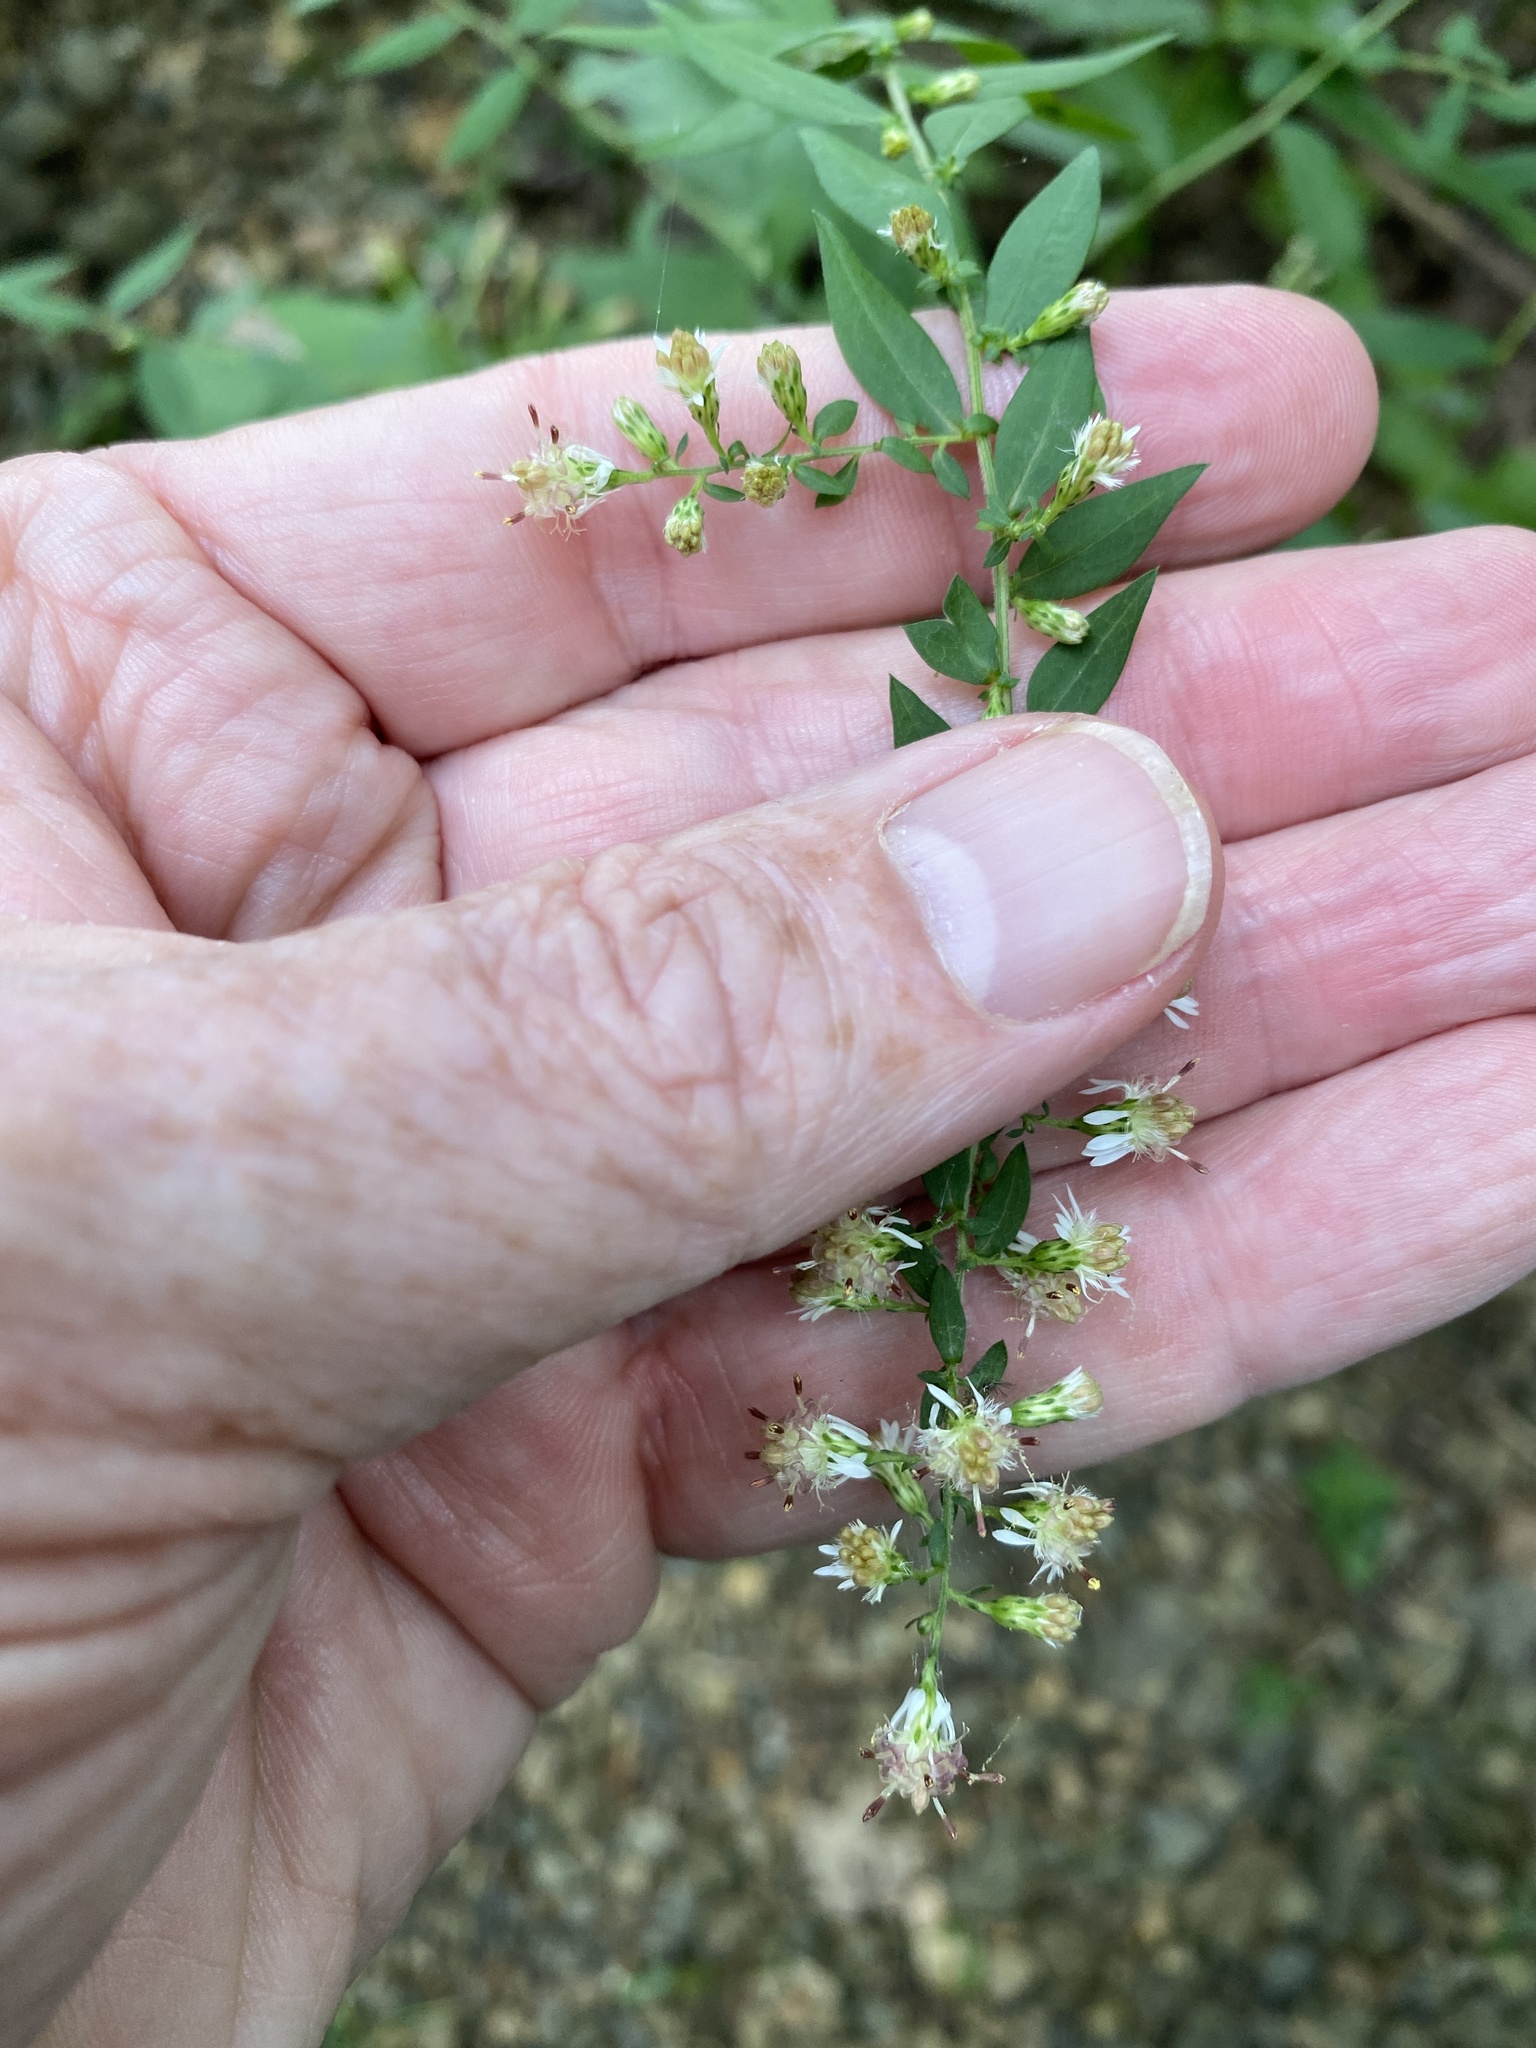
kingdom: Plantae
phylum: Tracheophyta
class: Magnoliopsida
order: Asterales
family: Asteraceae
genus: Symphyotrichum
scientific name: Symphyotrichum lateriflorum
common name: Calico aster
